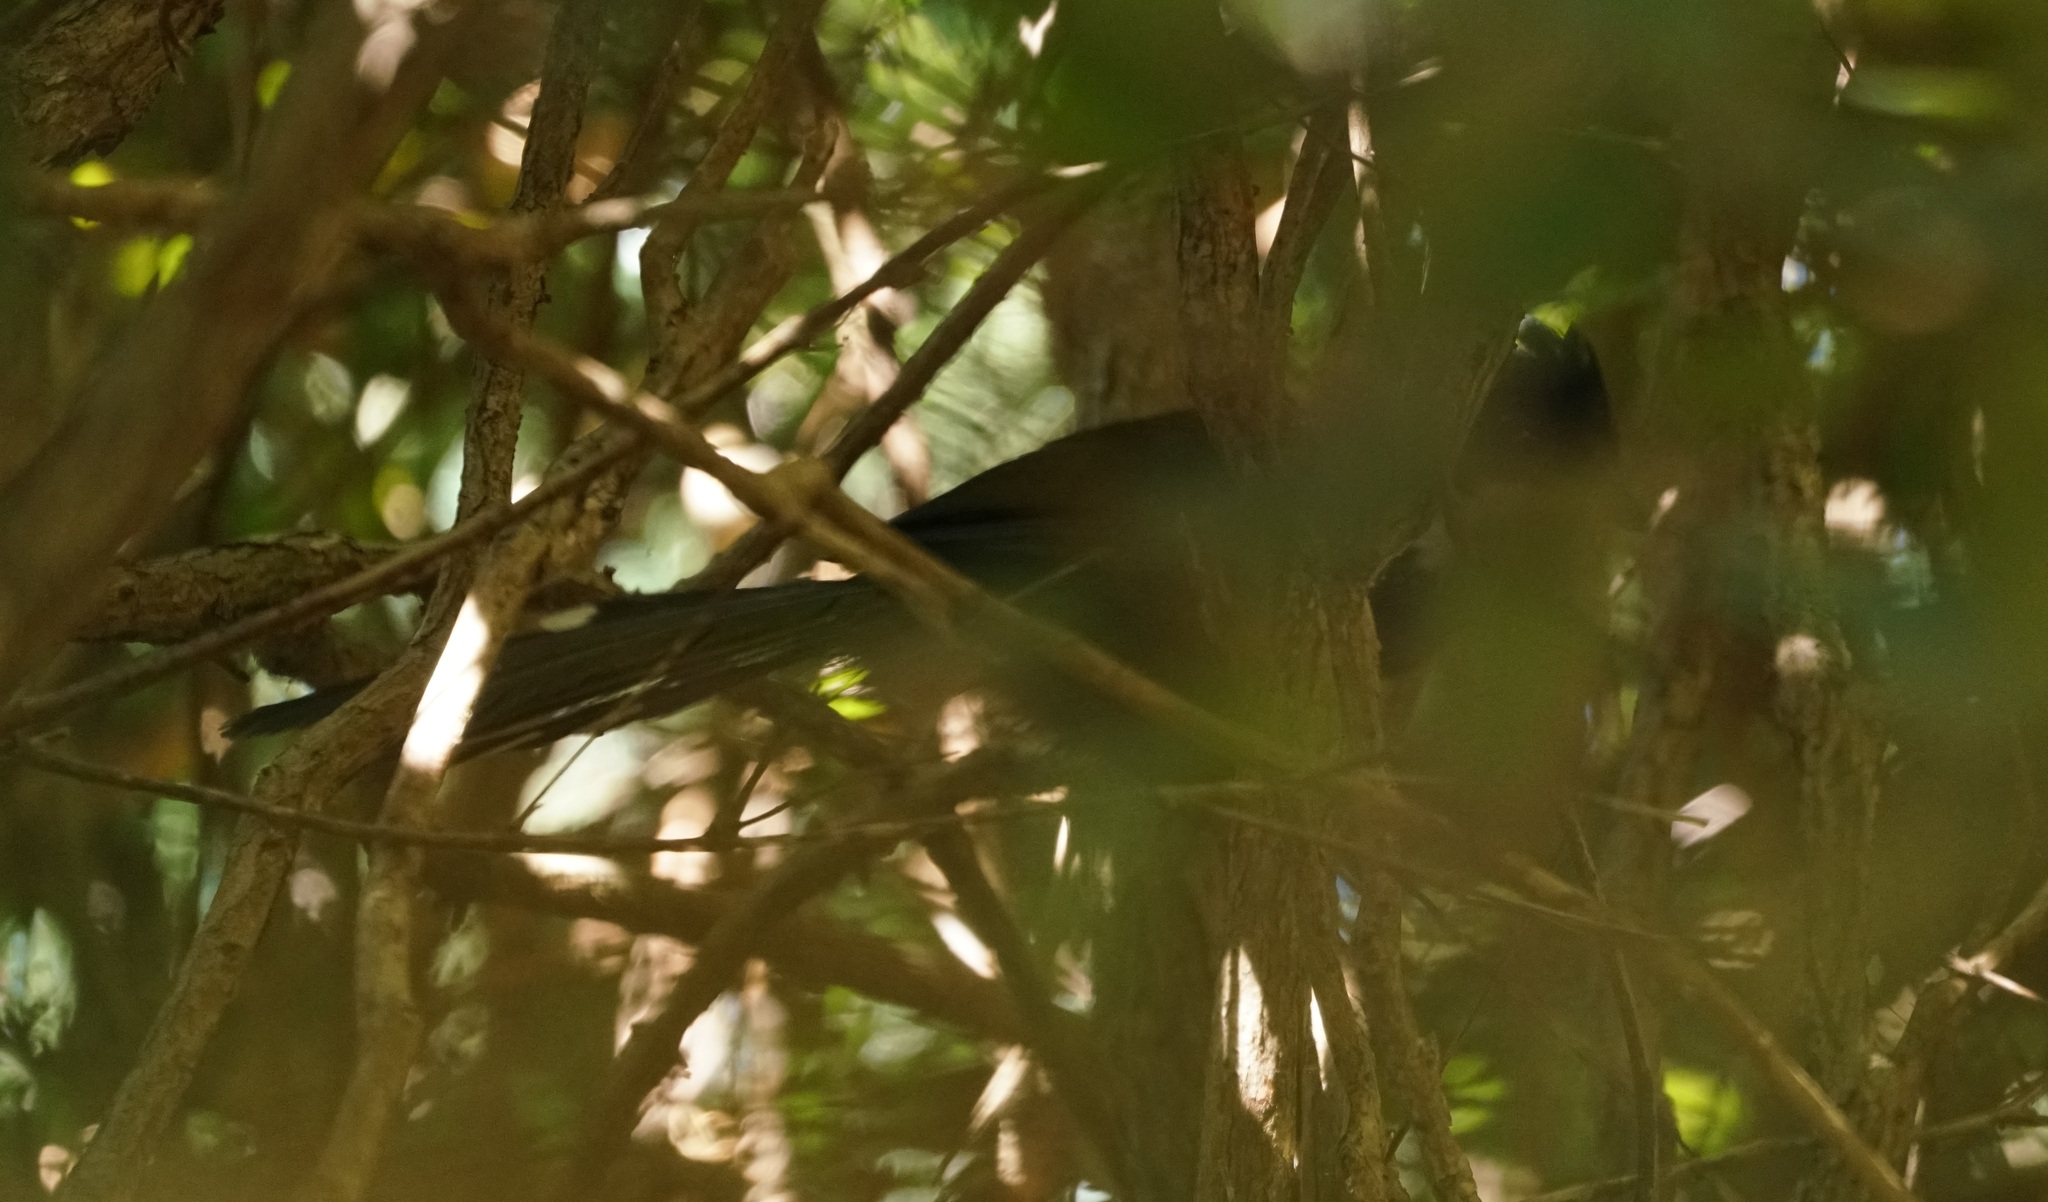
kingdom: Animalia
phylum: Chordata
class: Aves
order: Passeriformes
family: Psophodidae
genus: Psophodes
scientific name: Psophodes olivaceus
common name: Eastern whipbird
